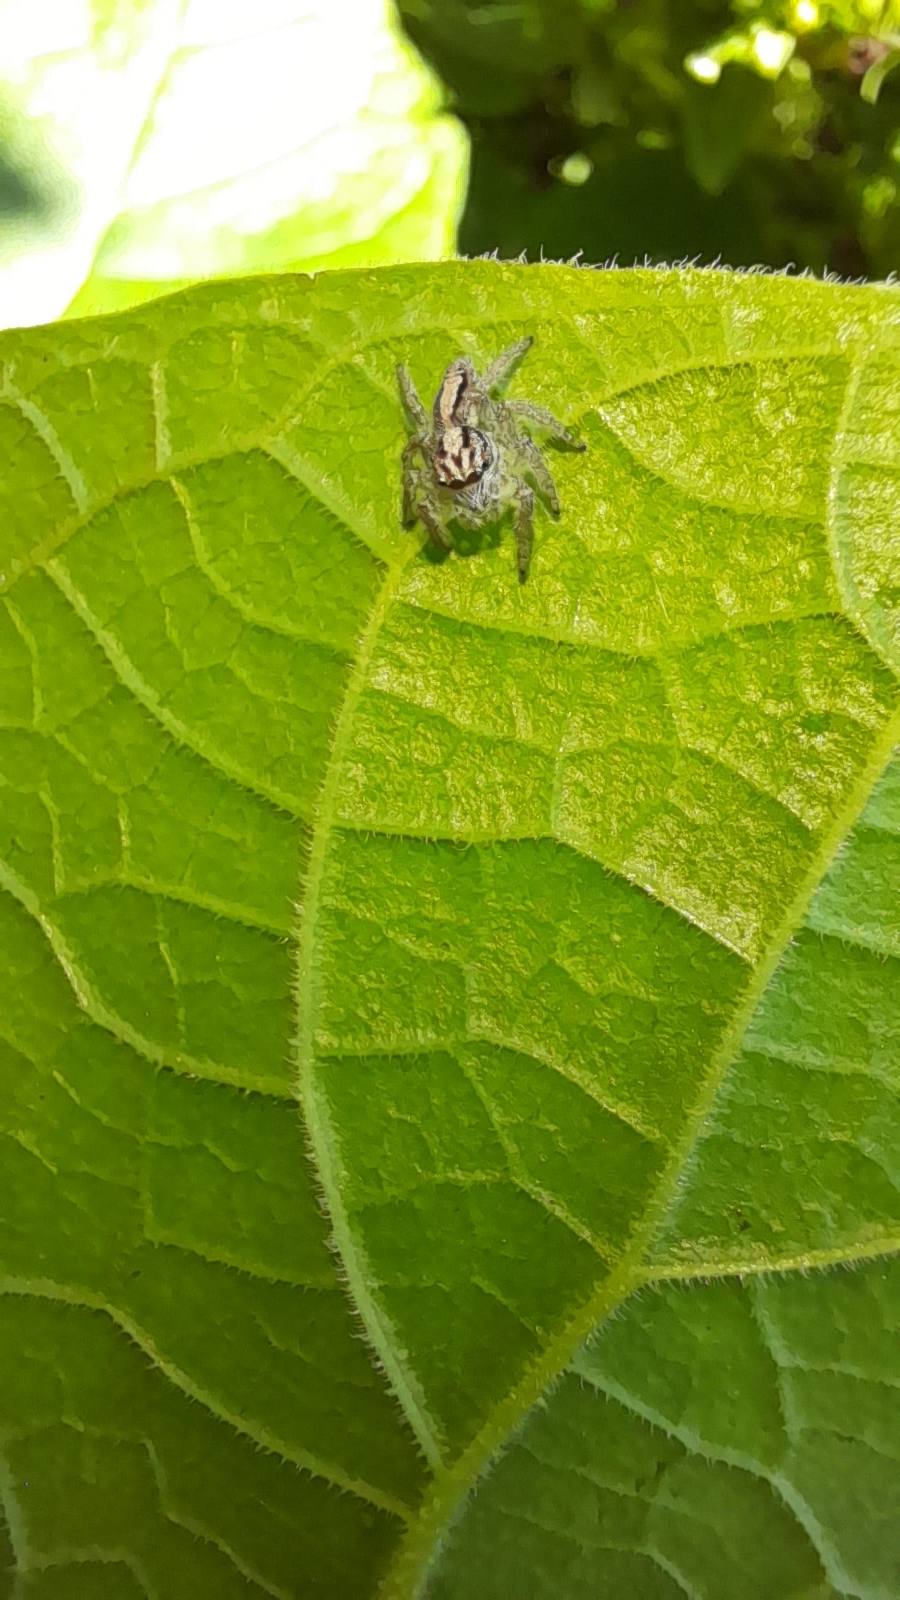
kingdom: Animalia
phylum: Arthropoda
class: Arachnida
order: Araneae
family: Salticidae
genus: Megafreya
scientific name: Megafreya sutrix
